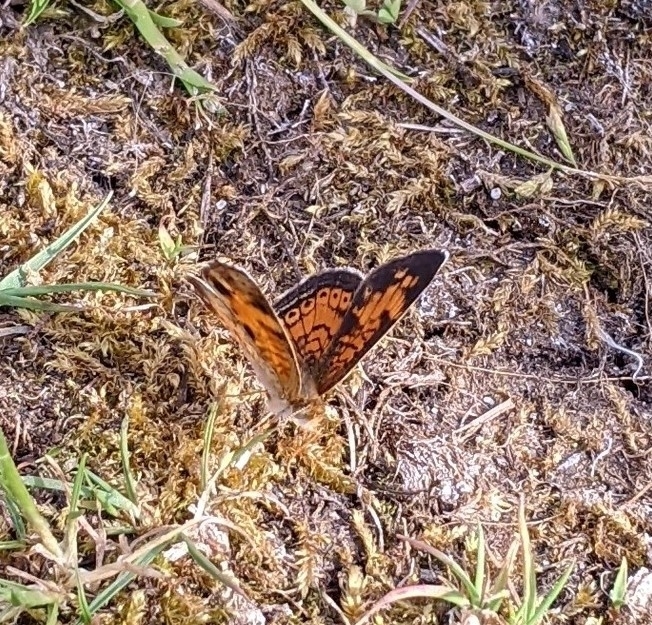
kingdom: Animalia
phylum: Arthropoda
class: Insecta
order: Lepidoptera
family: Nymphalidae
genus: Phyciodes
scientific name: Phyciodes tharos
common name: Pearl crescent
